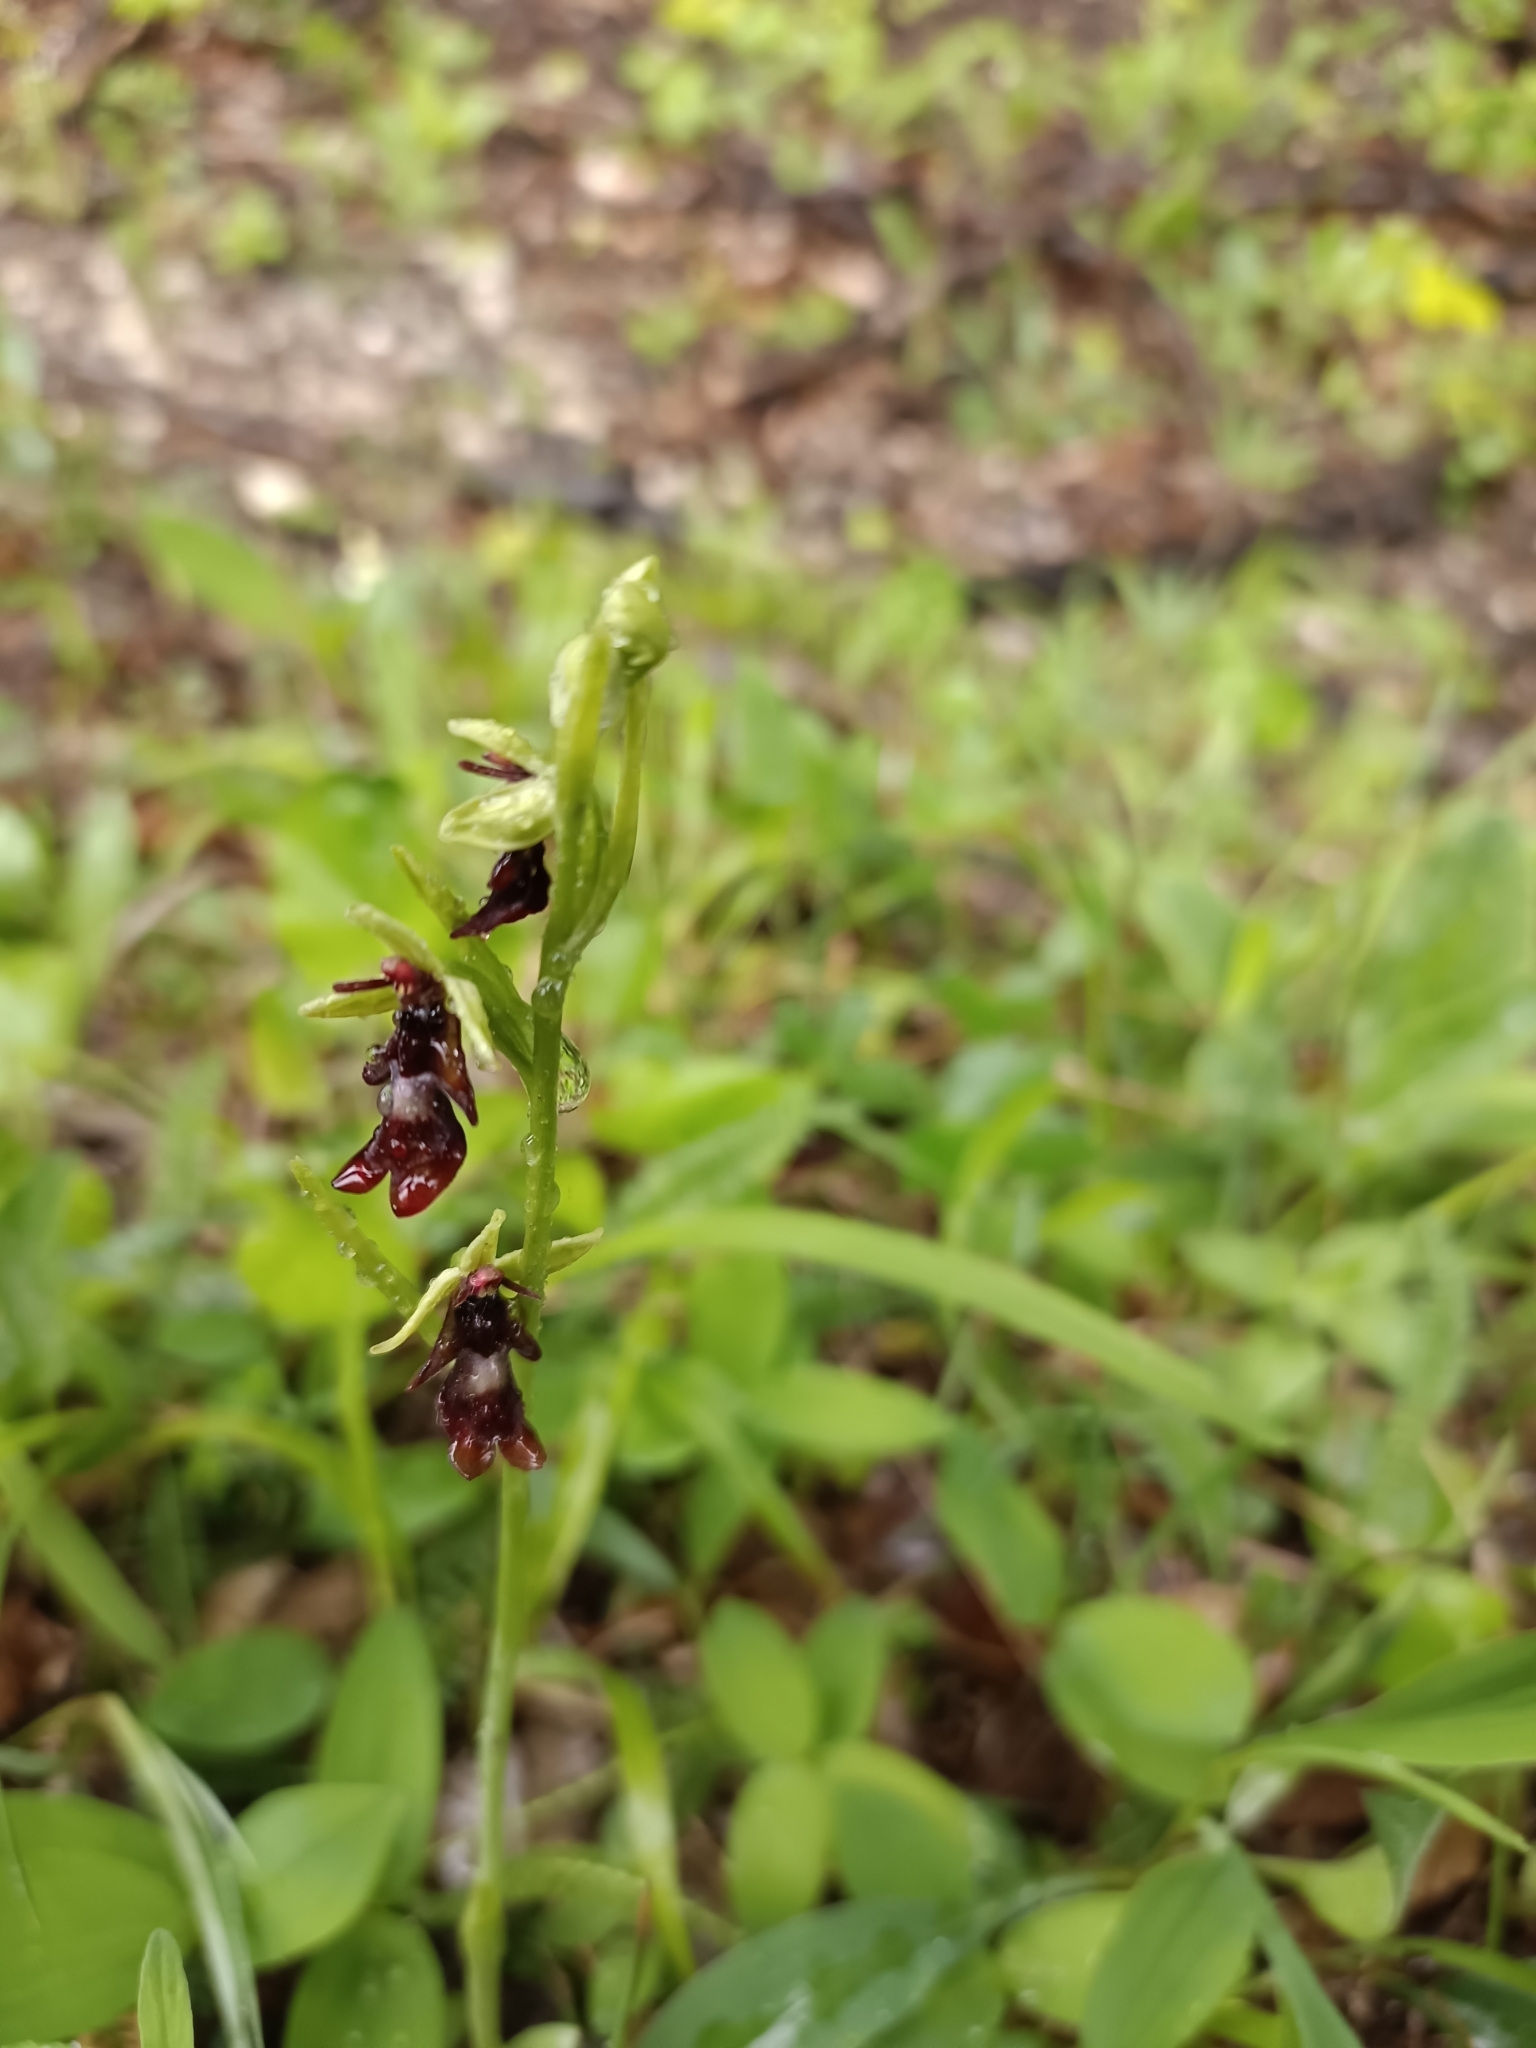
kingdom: Plantae
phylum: Tracheophyta
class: Liliopsida
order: Asparagales
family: Orchidaceae
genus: Ophrys
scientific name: Ophrys insectifera
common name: Fly orchid
